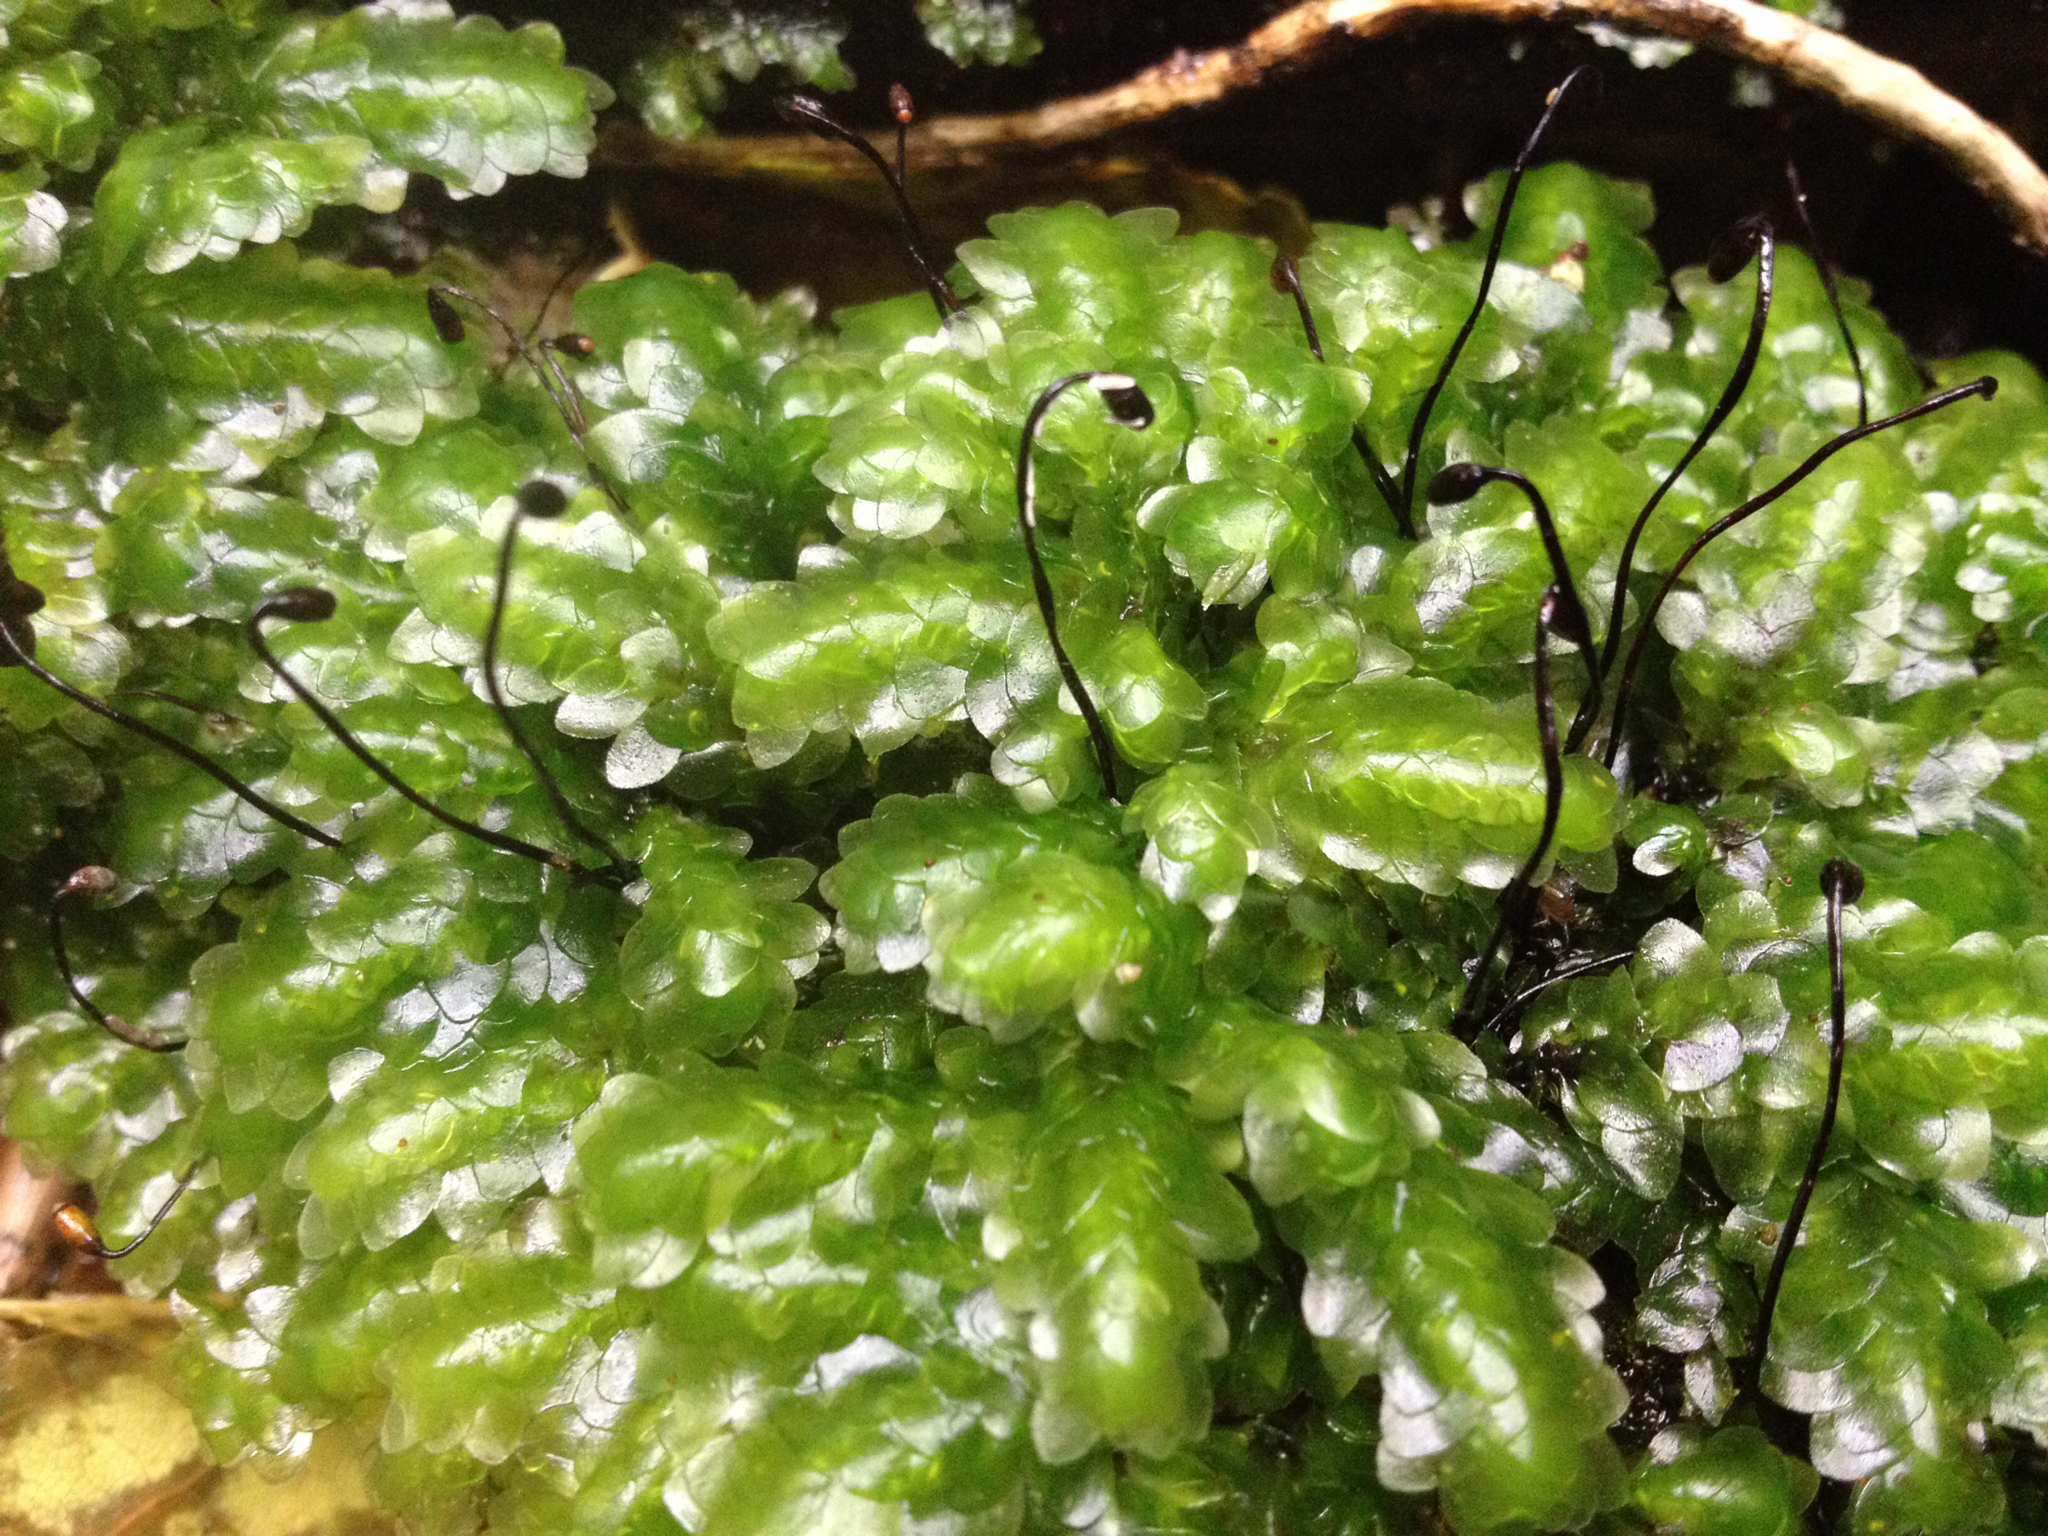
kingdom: Plantae
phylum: Bryophyta
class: Bryopsida
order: Hookeriales
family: Daltoniaceae
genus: Achrophyllum
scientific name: Achrophyllum quadrifarium
